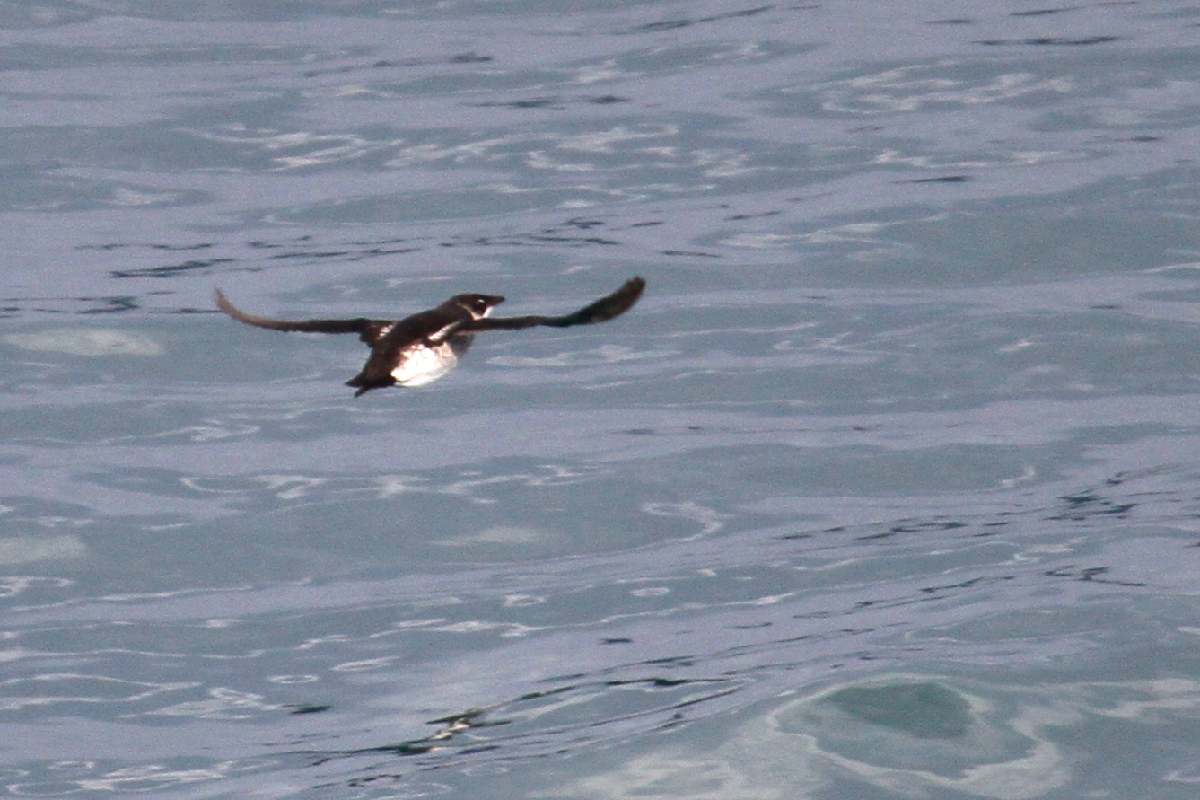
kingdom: Animalia
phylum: Chordata
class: Aves
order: Charadriiformes
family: Alcidae
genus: Brachyramphus
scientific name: Brachyramphus marmoratus
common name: Marbled murrelet
